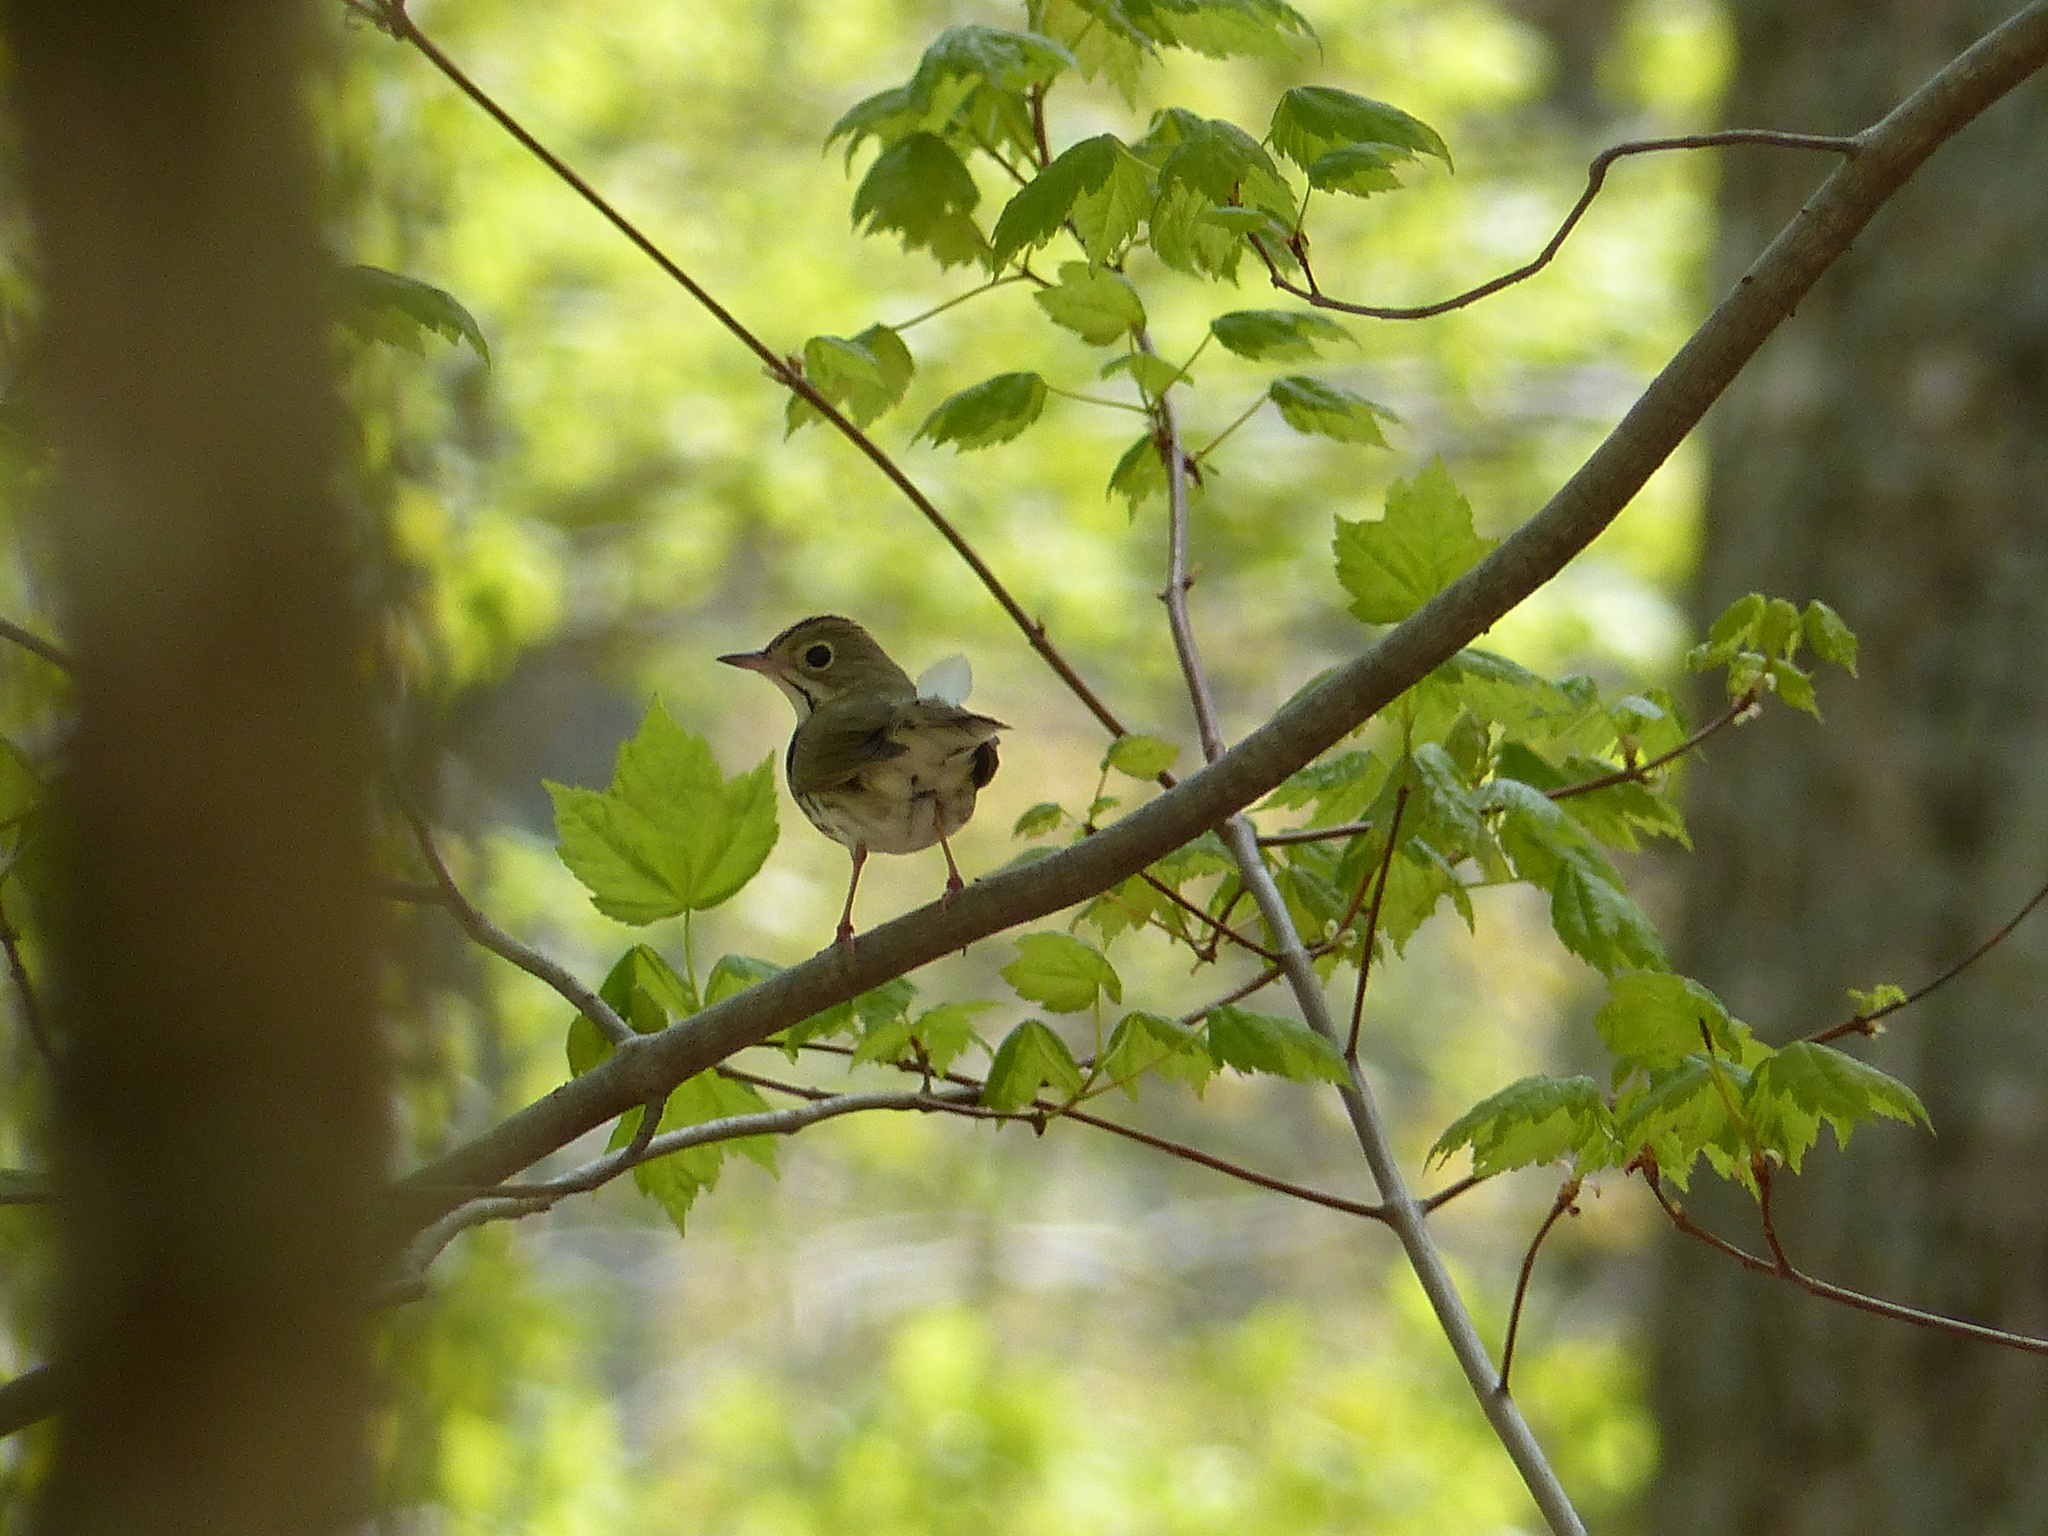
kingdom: Animalia
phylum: Chordata
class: Aves
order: Passeriformes
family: Parulidae
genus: Seiurus
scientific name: Seiurus aurocapilla
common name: Ovenbird
